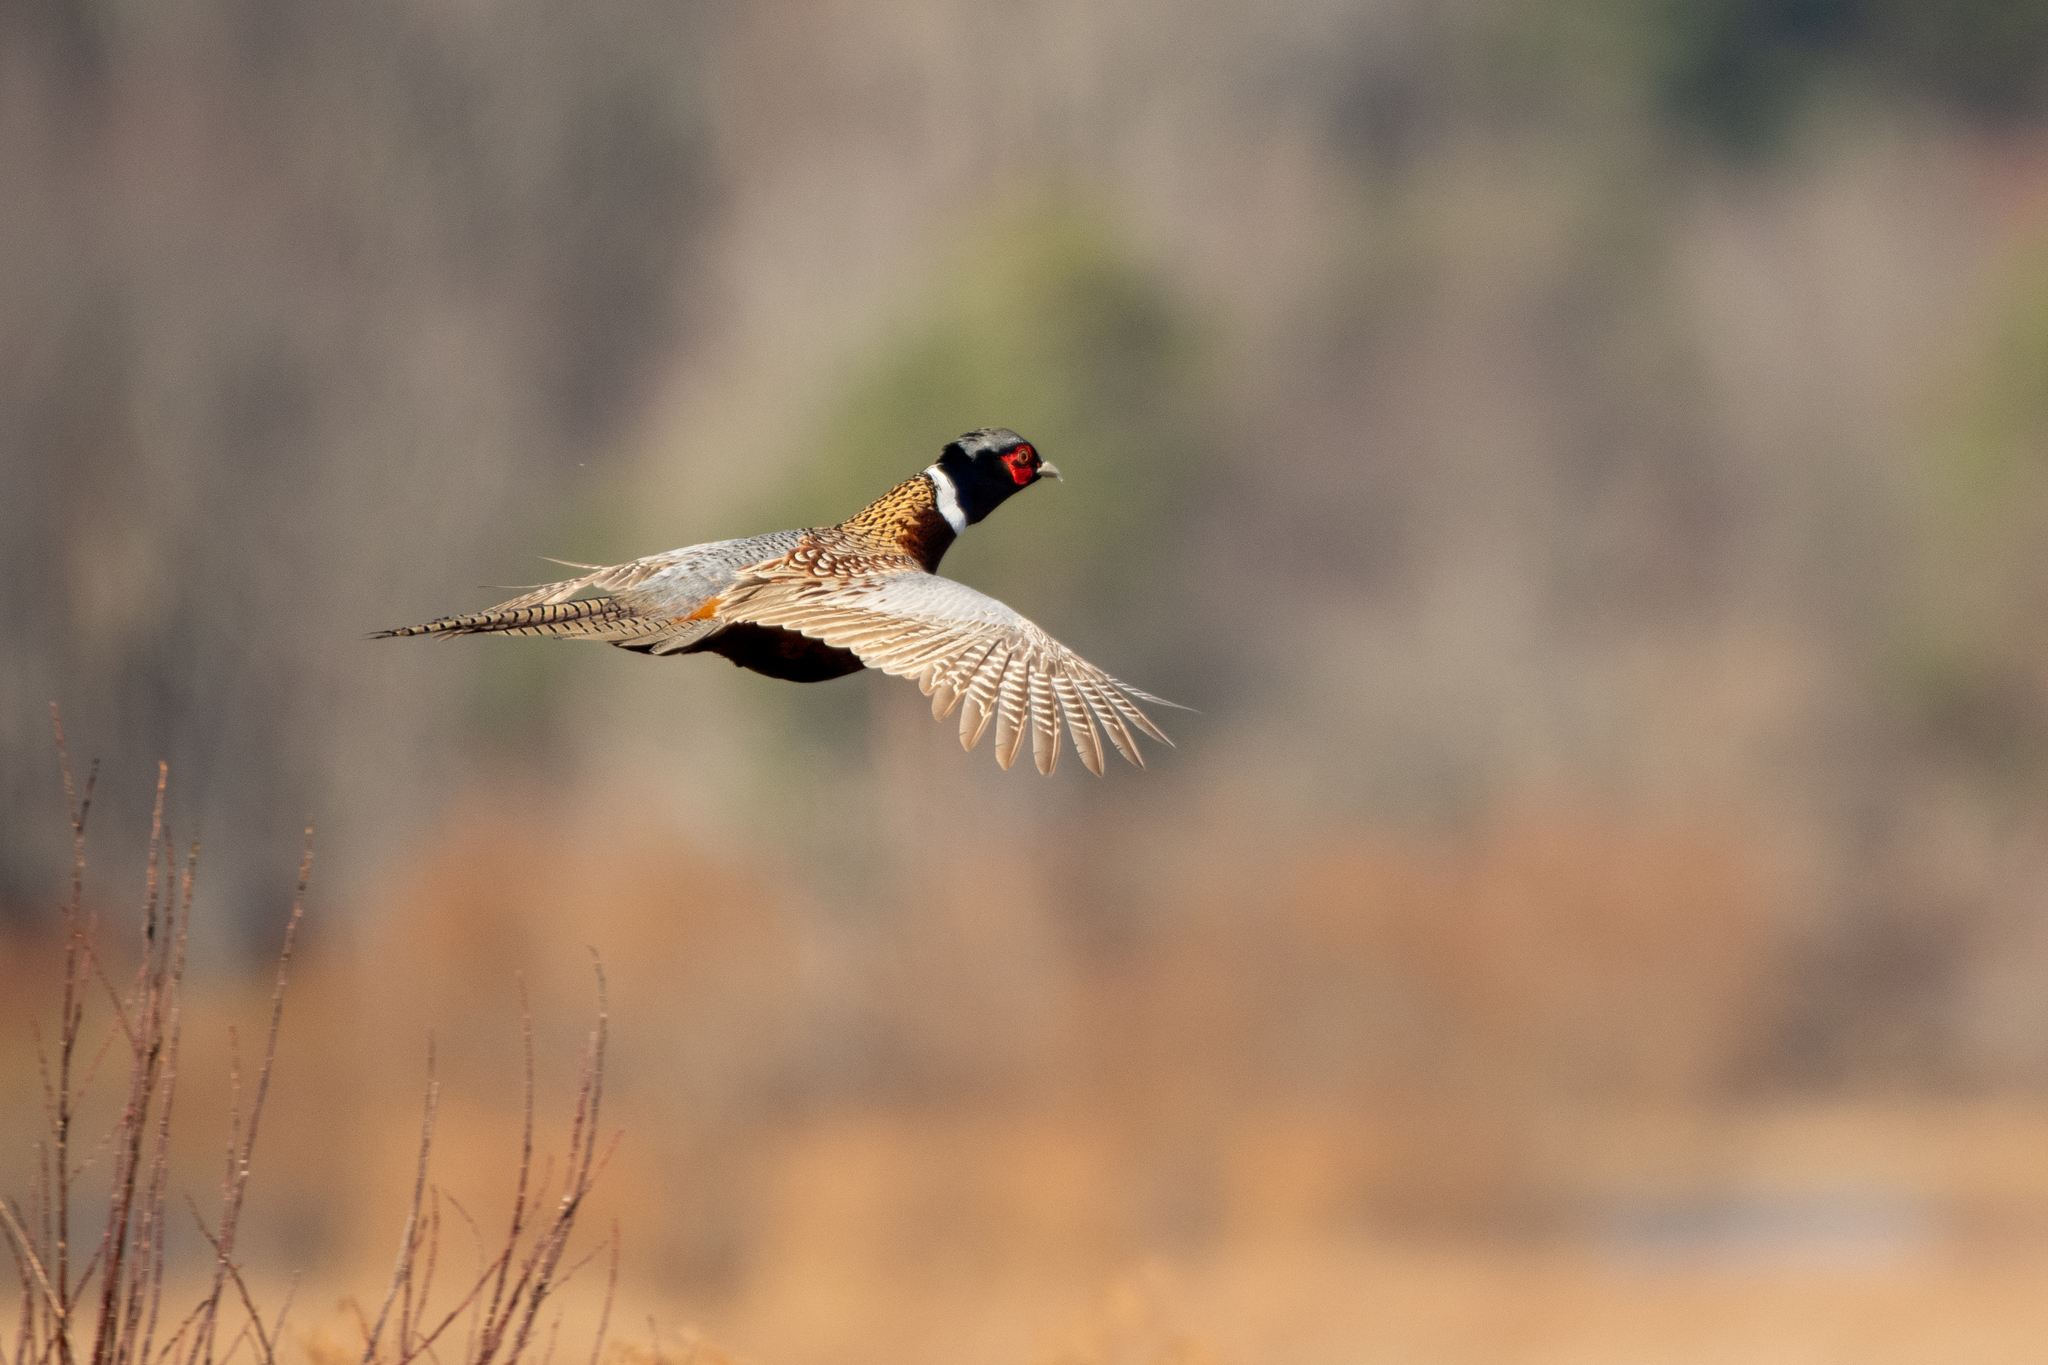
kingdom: Animalia
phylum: Chordata
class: Aves
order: Galliformes
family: Phasianidae
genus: Phasianus
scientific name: Phasianus colchicus
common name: Common pheasant
